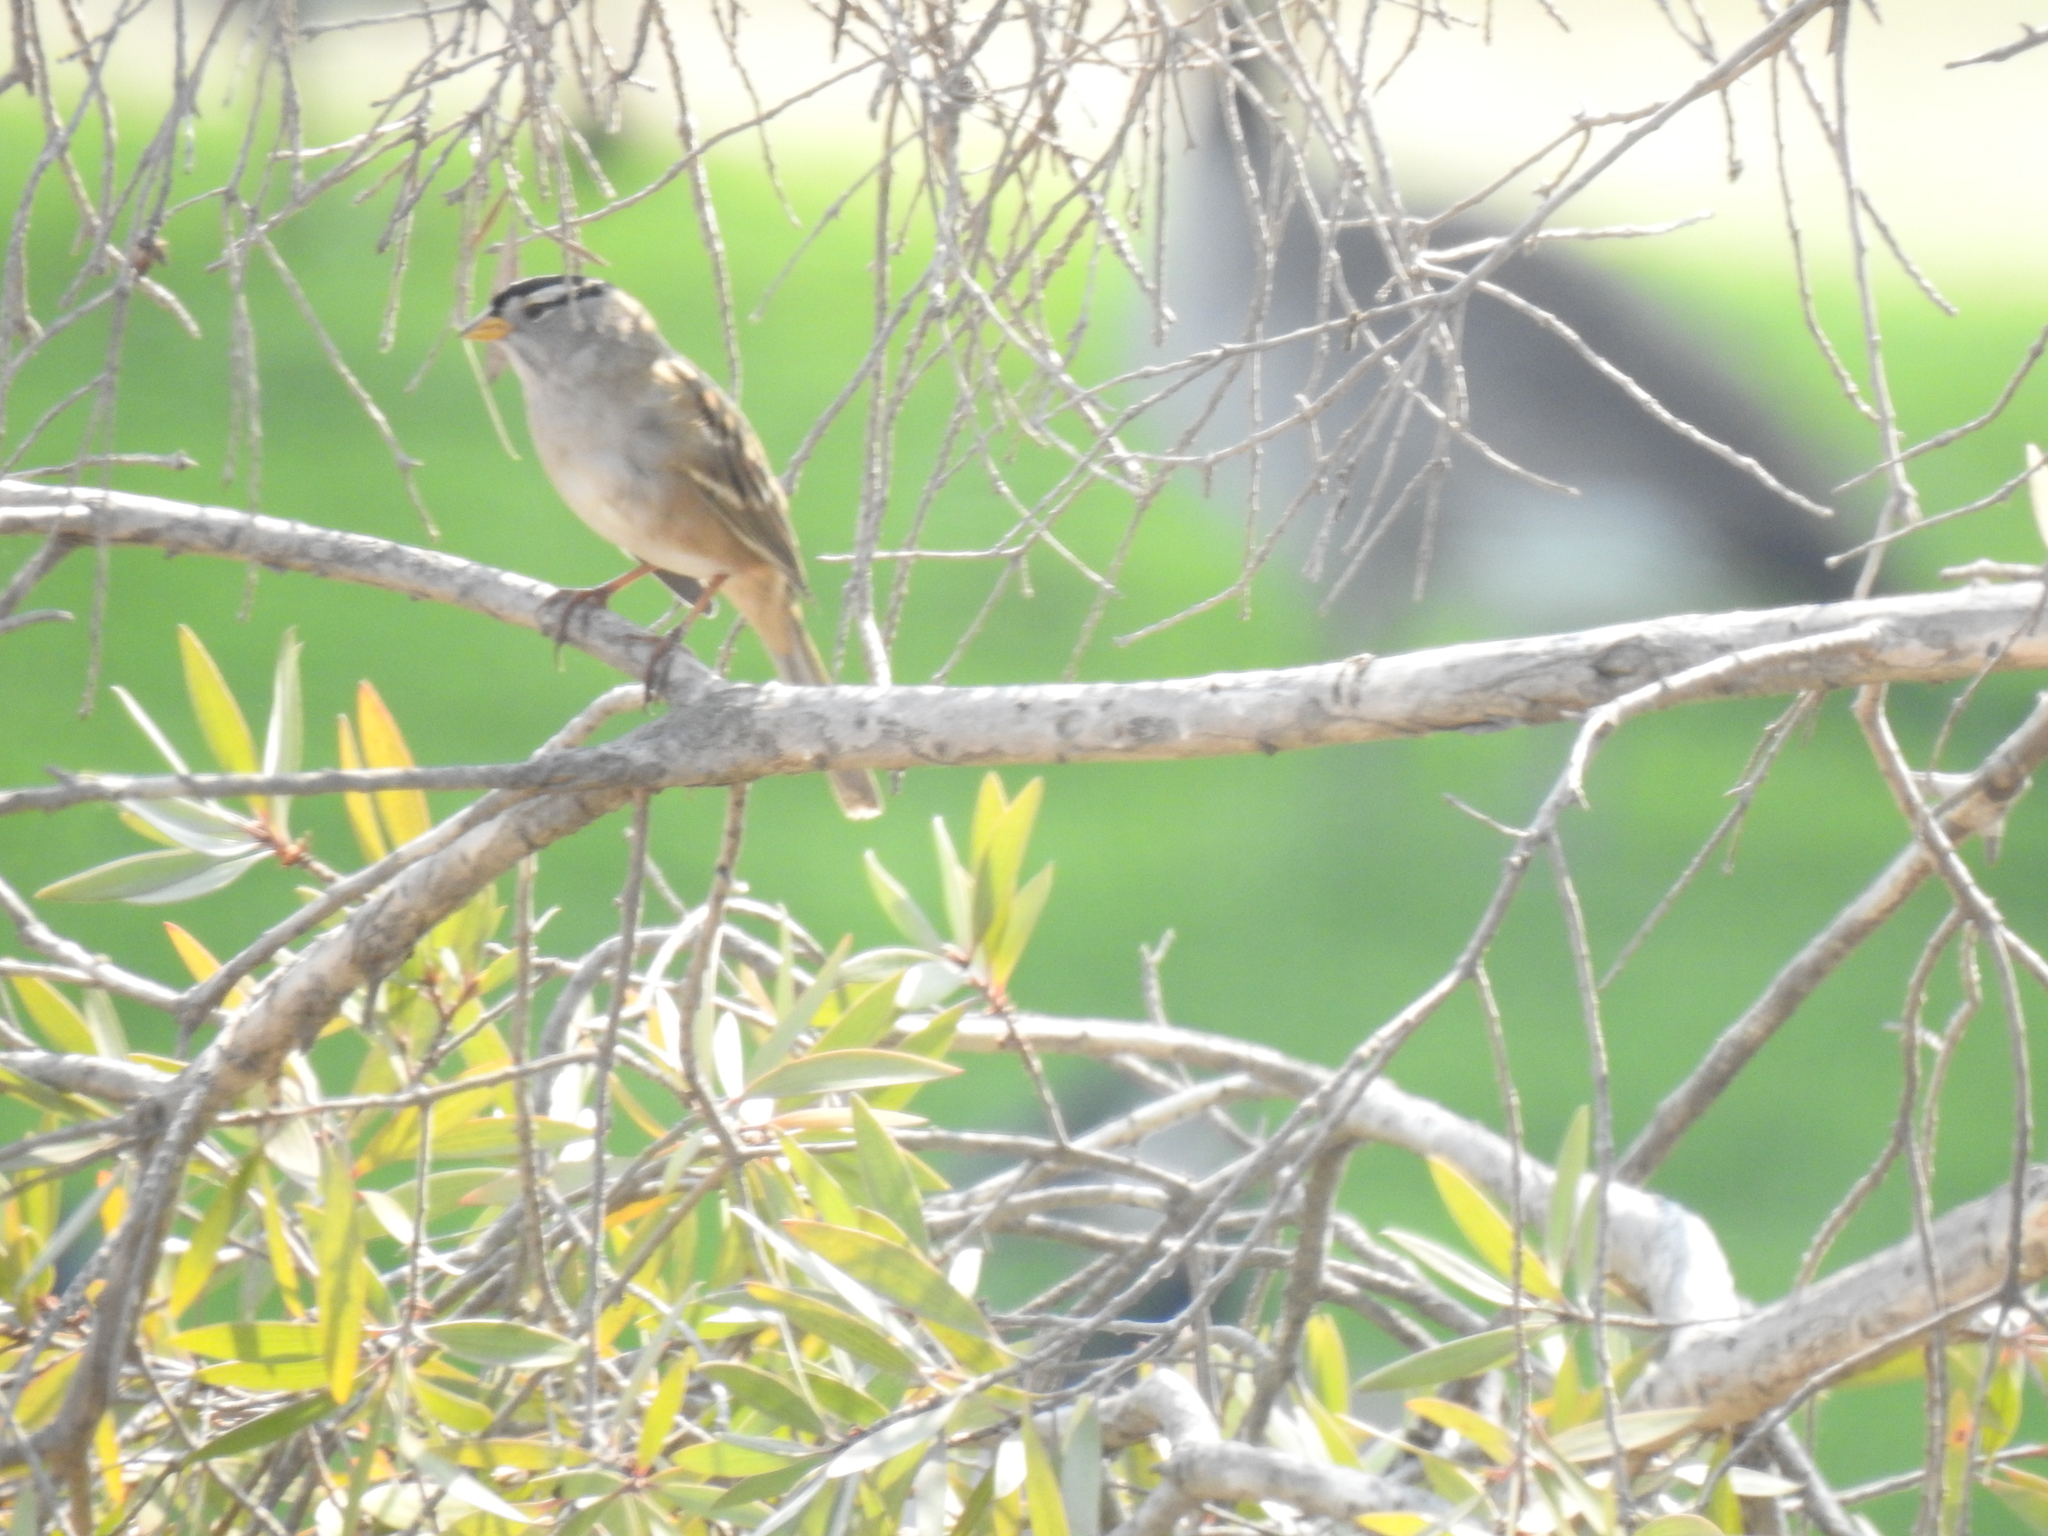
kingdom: Animalia
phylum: Chordata
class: Aves
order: Passeriformes
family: Passerellidae
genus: Zonotrichia
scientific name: Zonotrichia leucophrys
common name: White-crowned sparrow
